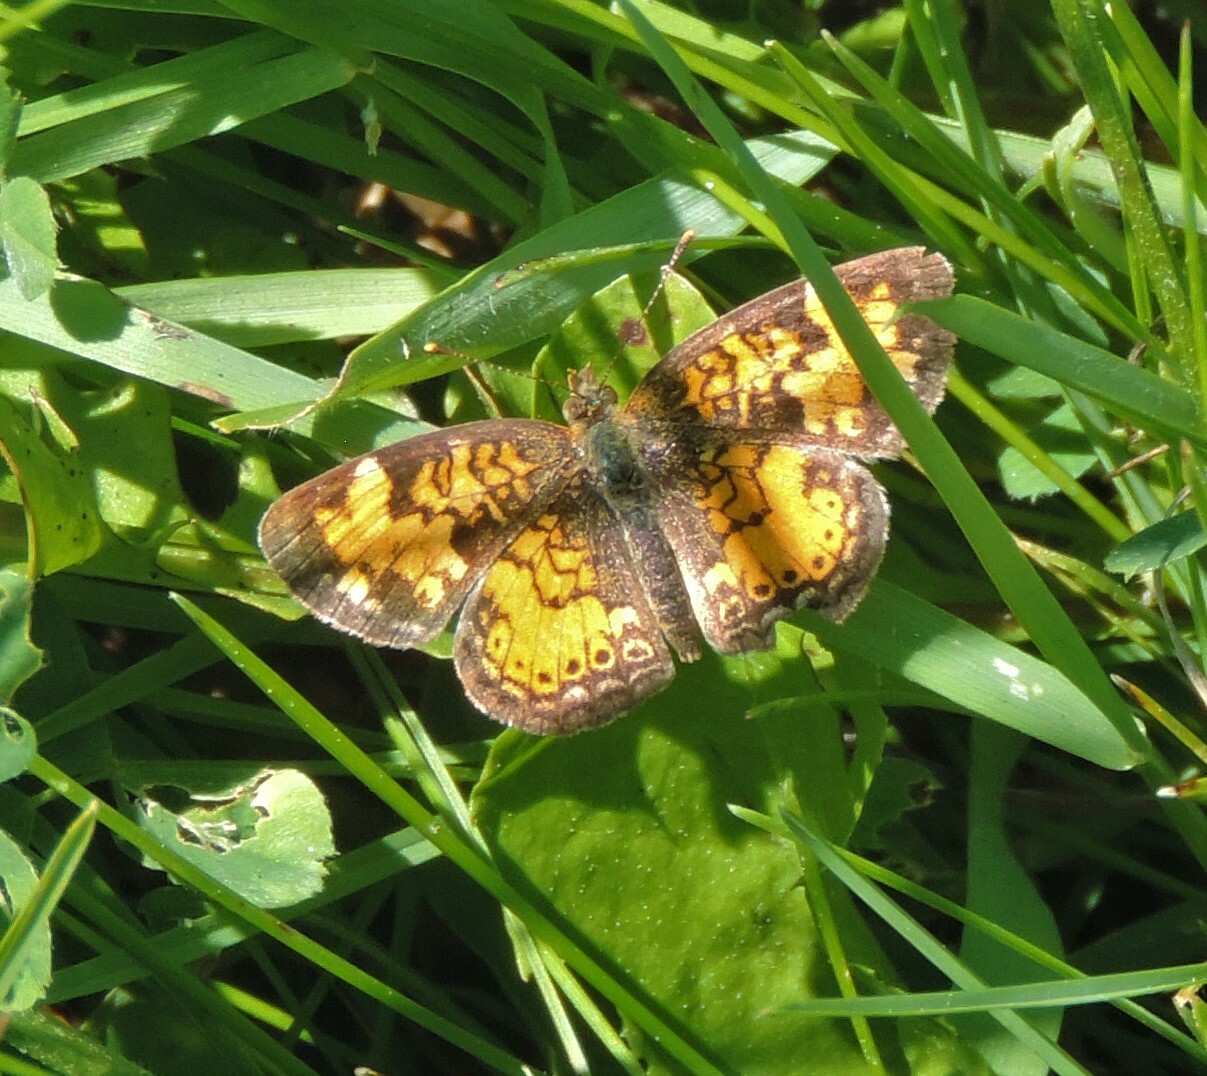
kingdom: Animalia
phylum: Arthropoda
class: Insecta
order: Lepidoptera
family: Nymphalidae
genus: Phyciodes
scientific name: Phyciodes tharos
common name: Pearl crescent
